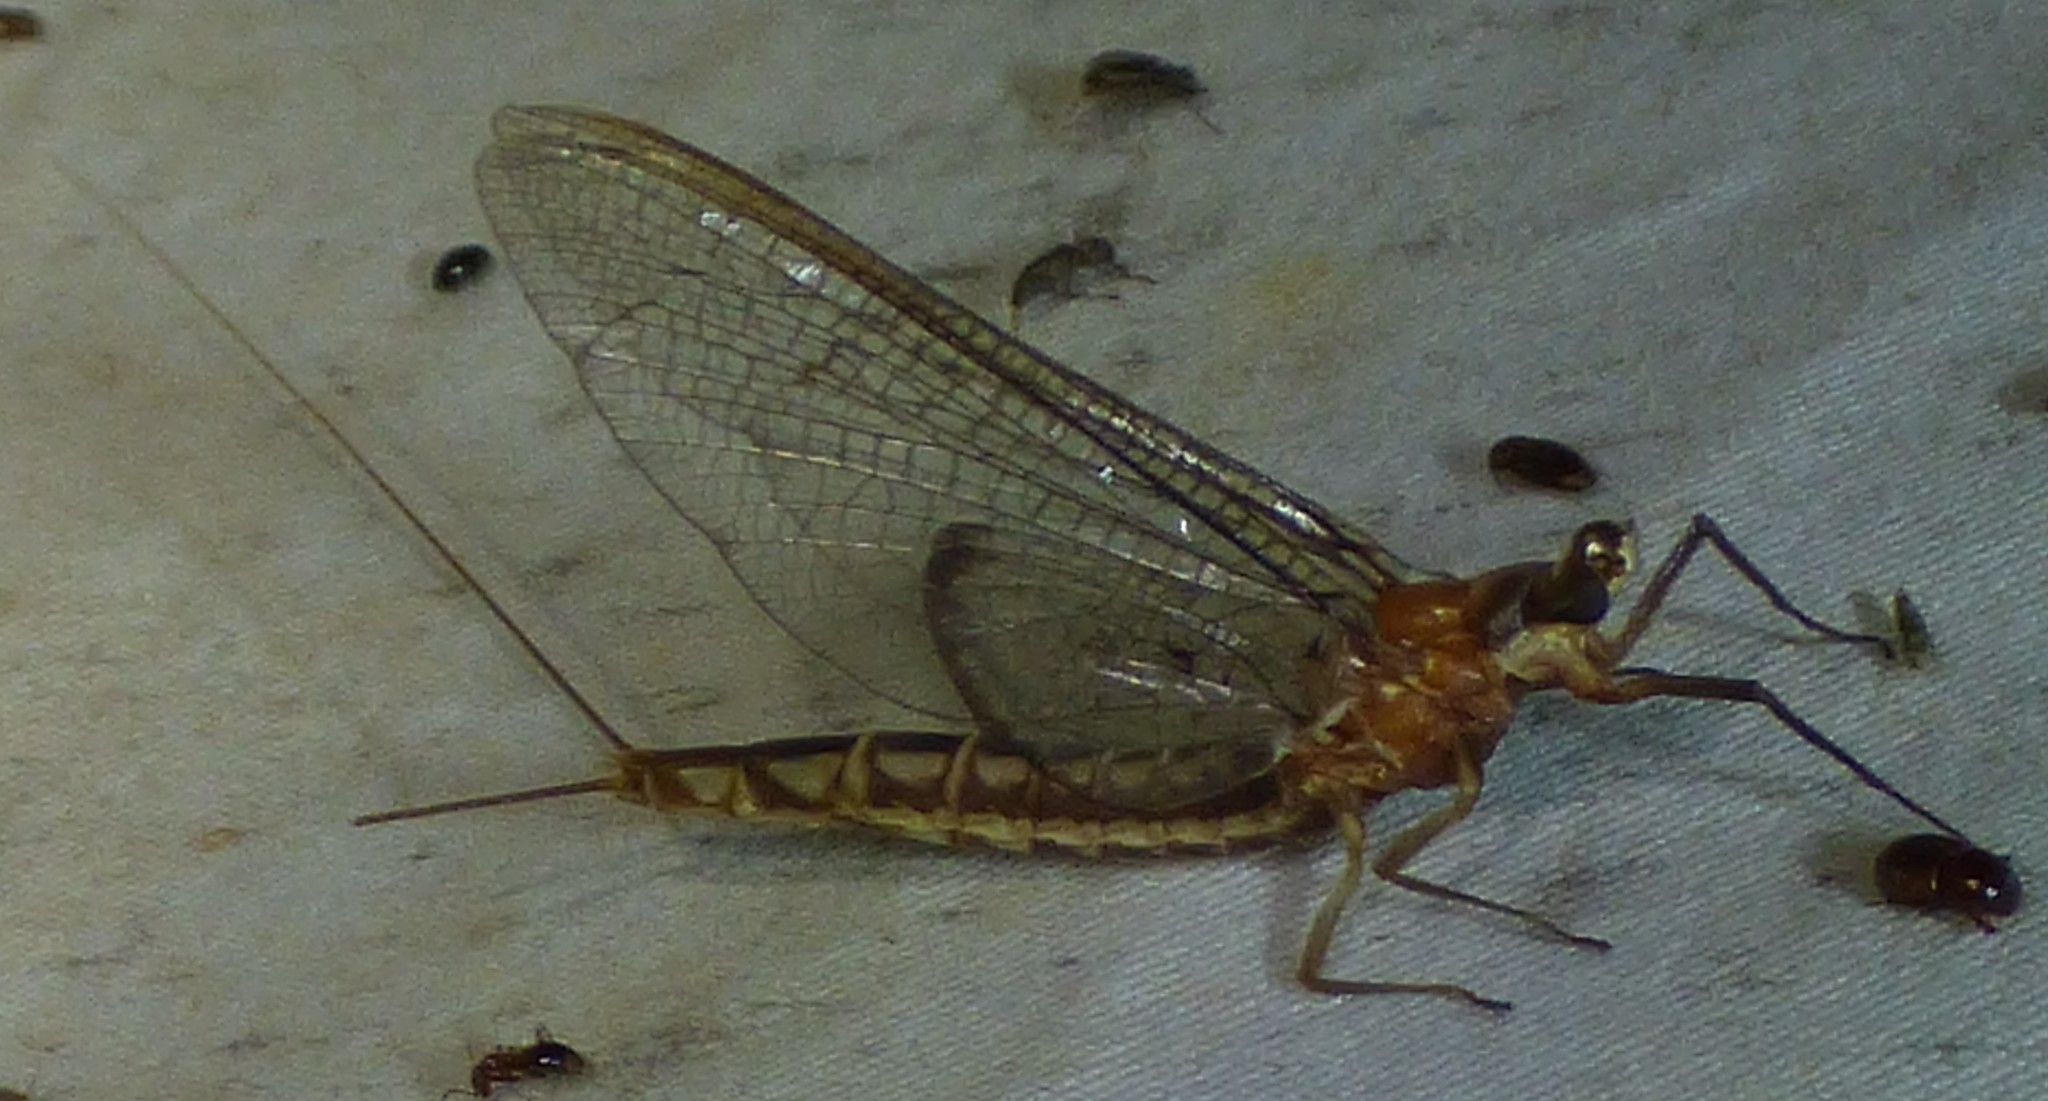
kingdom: Animalia
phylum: Arthropoda
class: Insecta
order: Ephemeroptera
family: Ephemeridae
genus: Hexagenia
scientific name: Hexagenia bilineata
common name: Emergent mayfly
